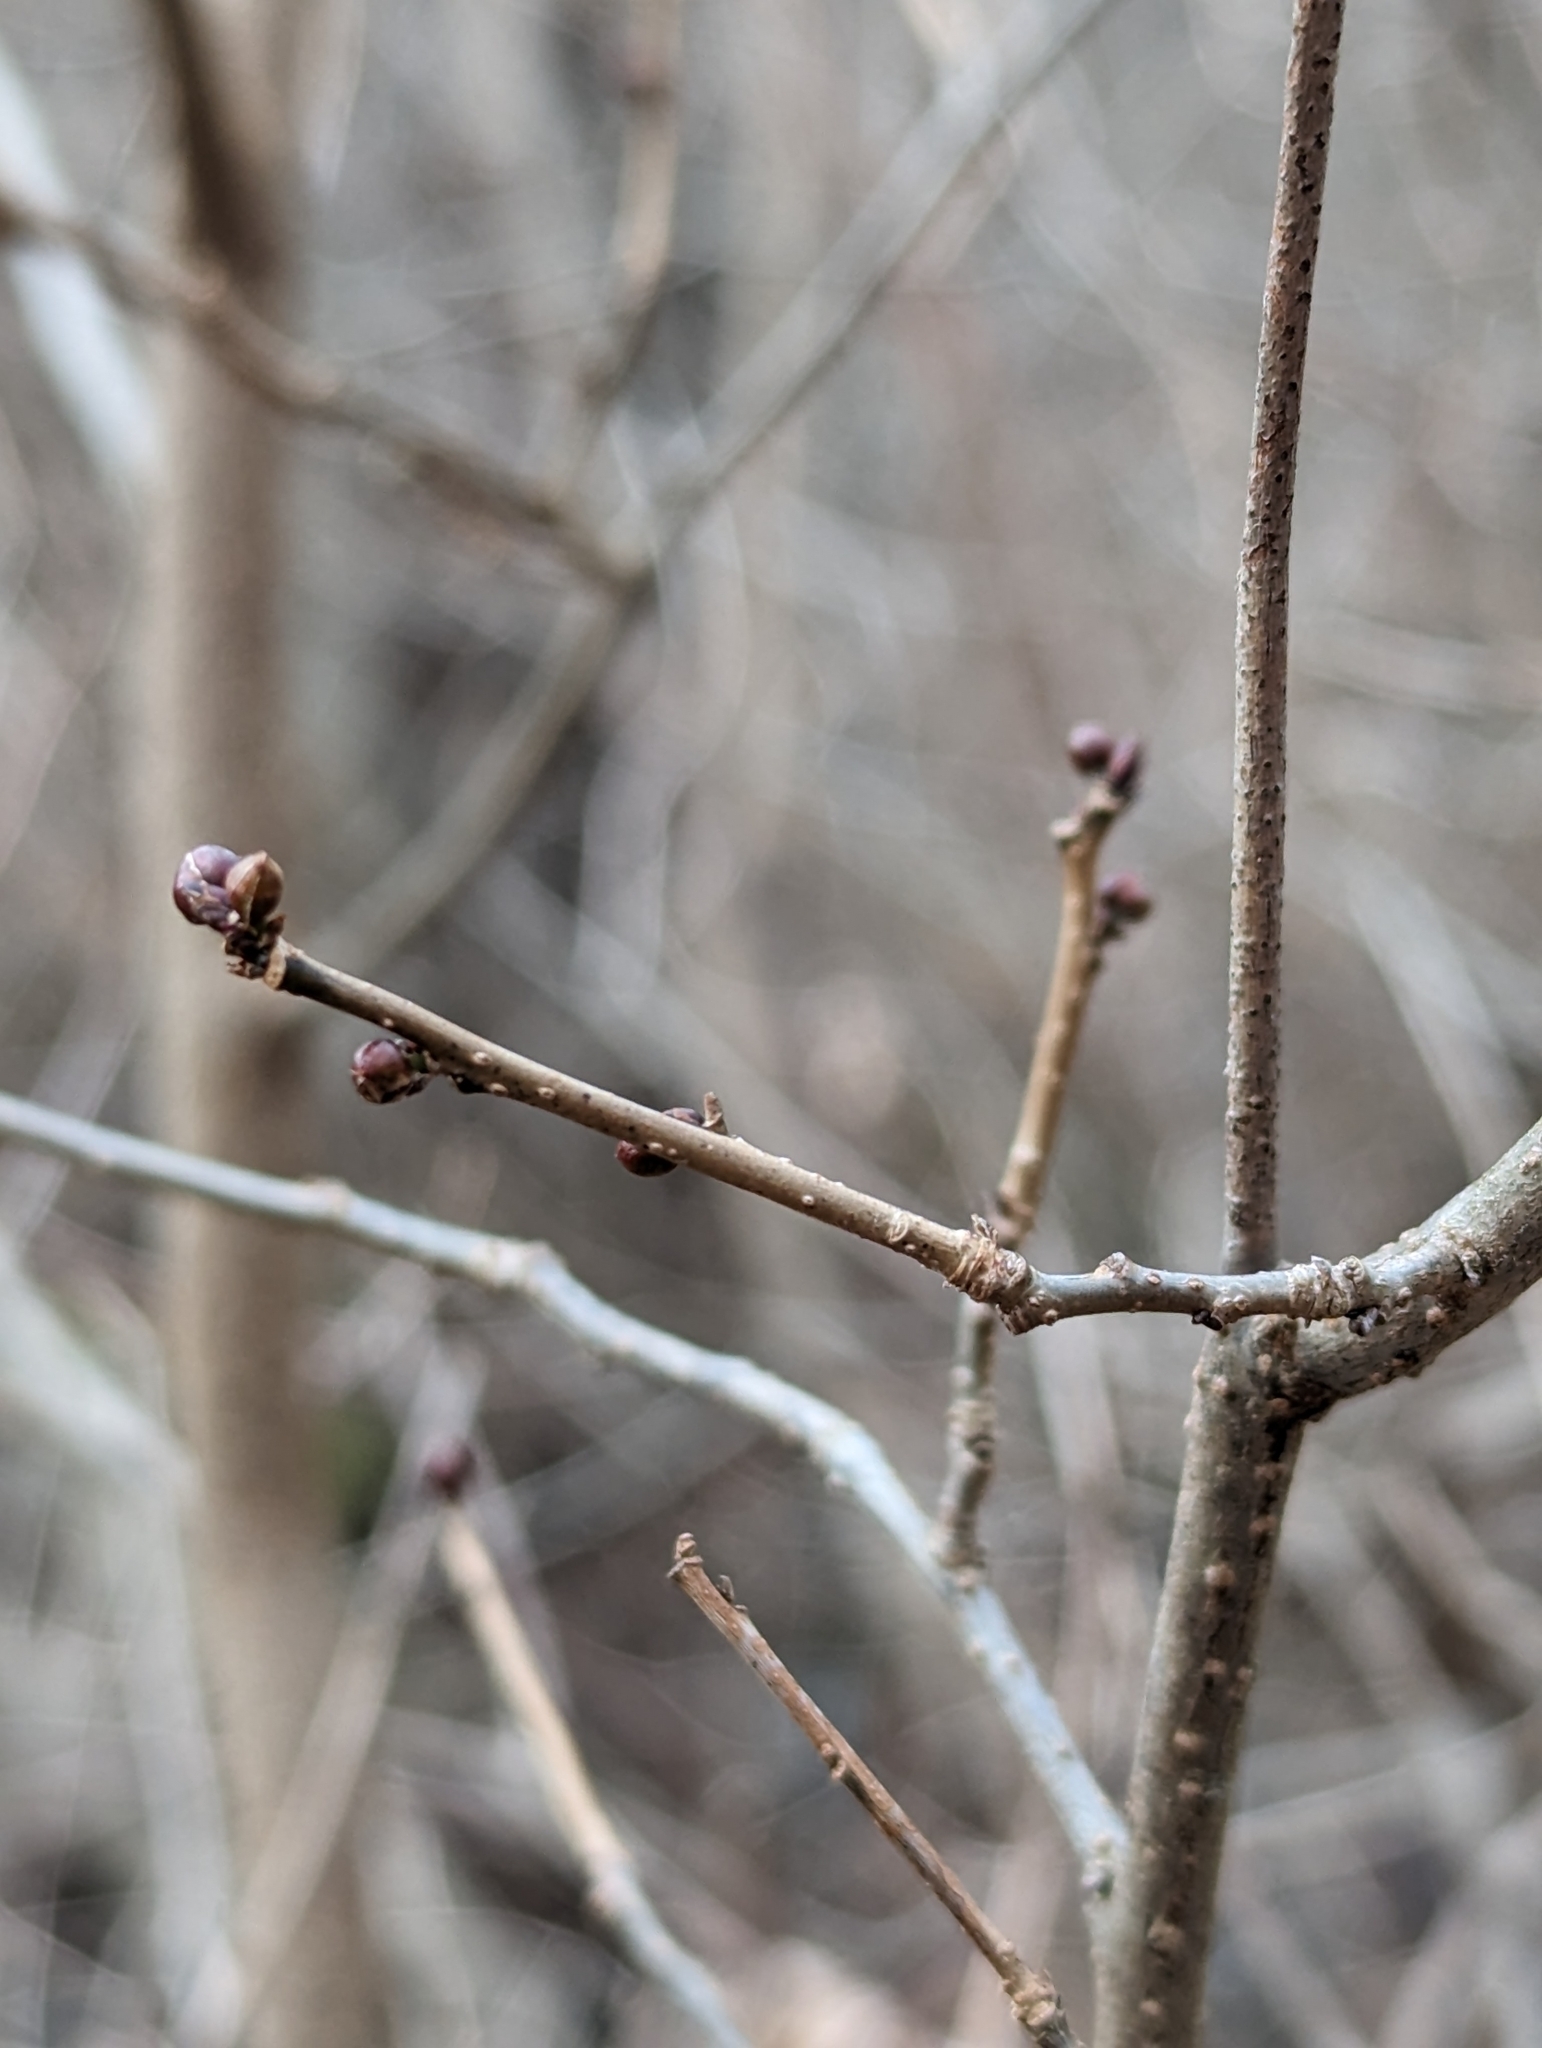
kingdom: Plantae
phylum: Tracheophyta
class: Magnoliopsida
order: Laurales
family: Lauraceae
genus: Lindera
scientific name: Lindera benzoin
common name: Spicebush
